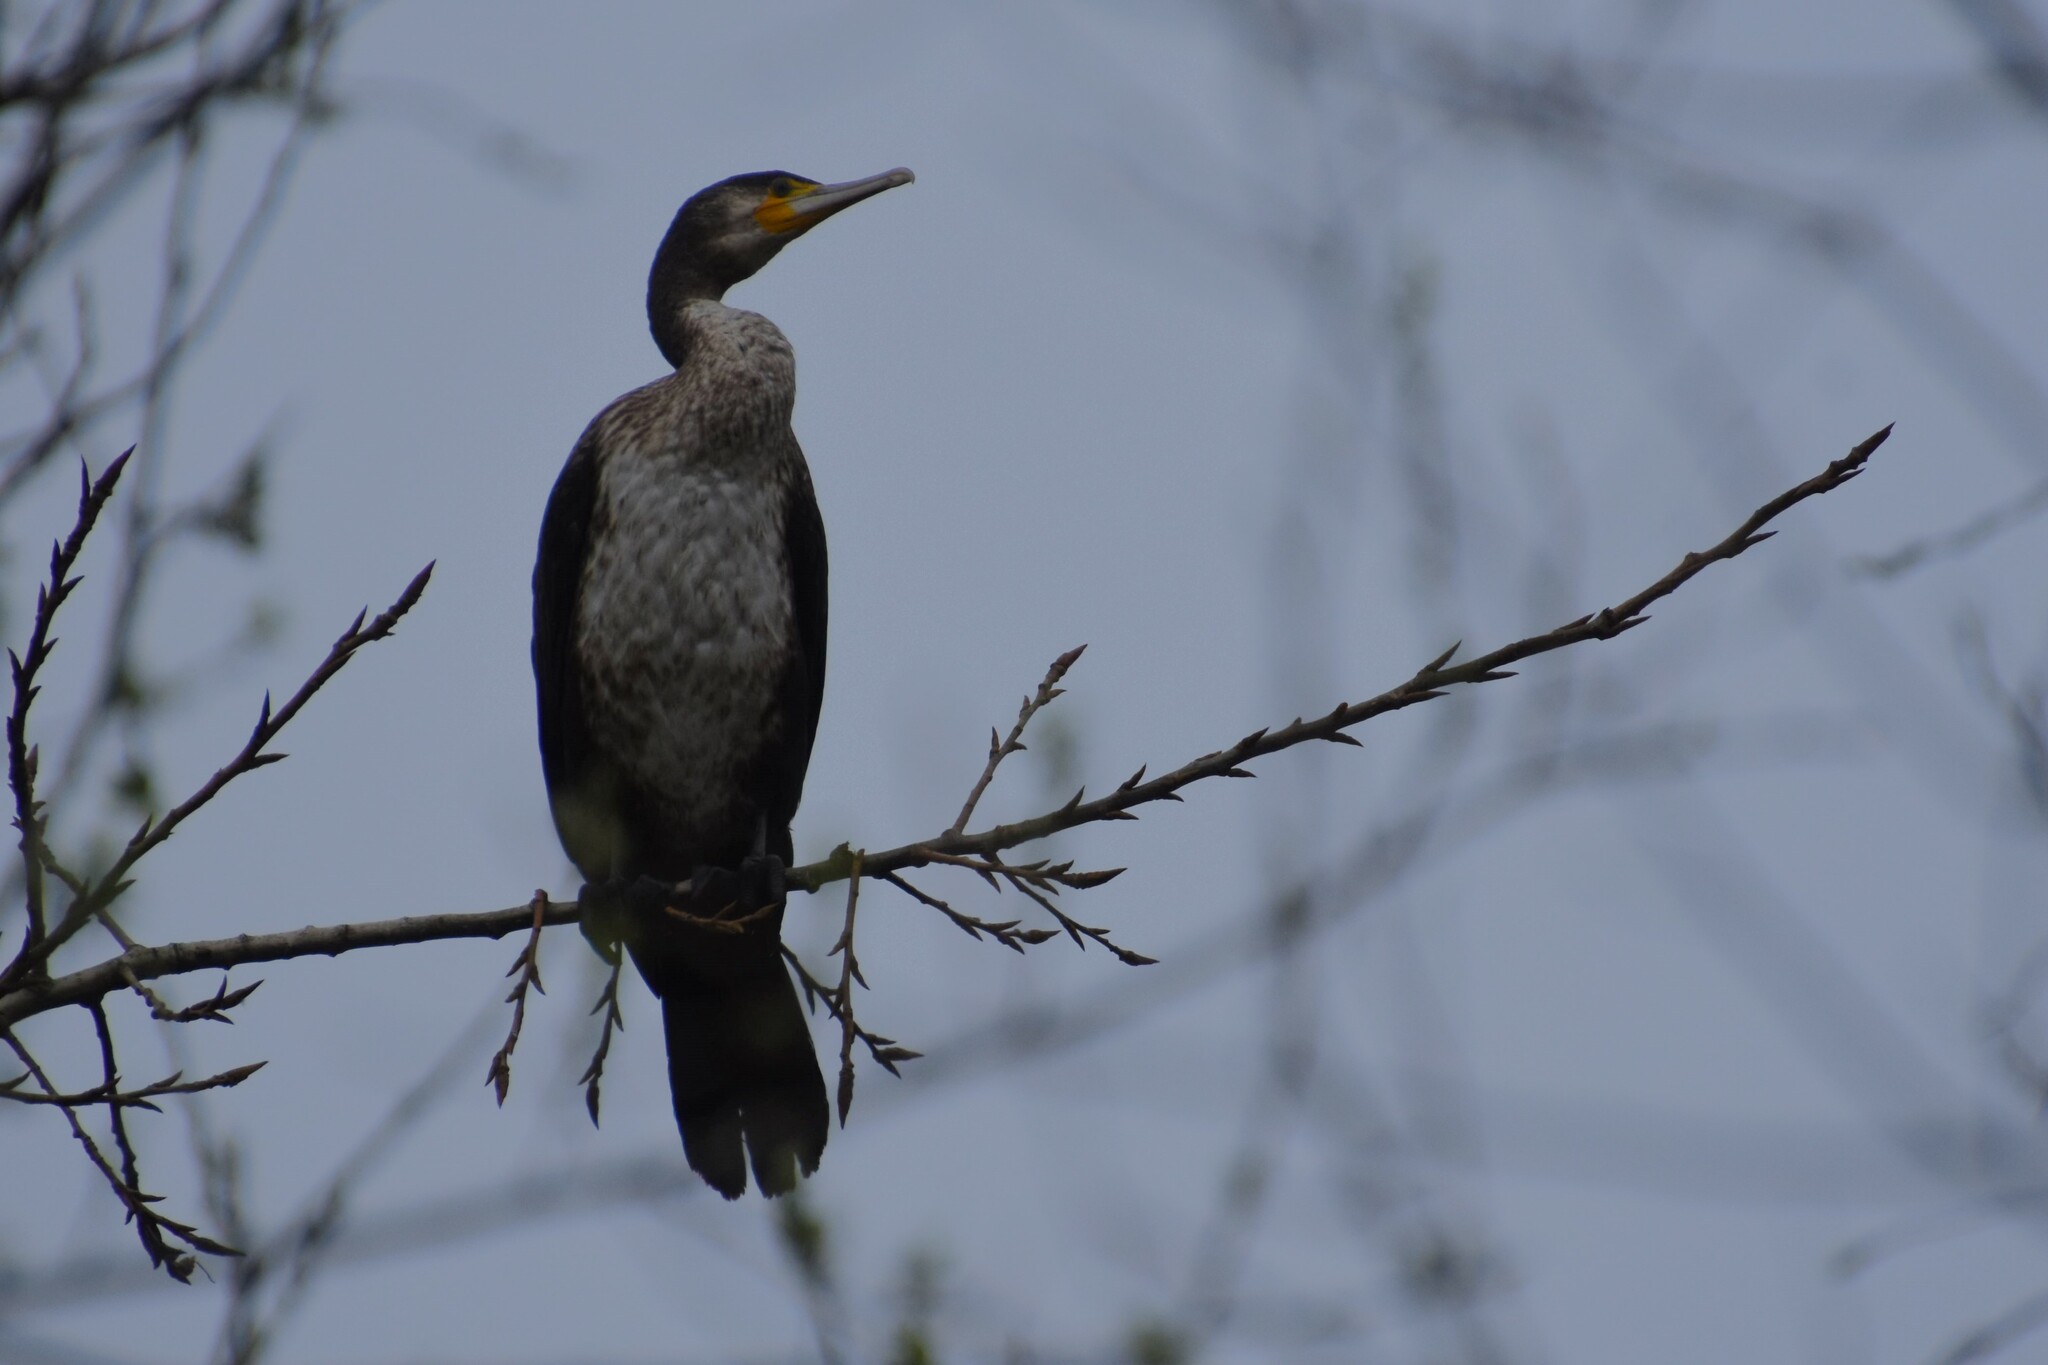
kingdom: Animalia
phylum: Chordata
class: Aves
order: Suliformes
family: Phalacrocoracidae
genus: Phalacrocorax
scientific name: Phalacrocorax carbo
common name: Great cormorant
